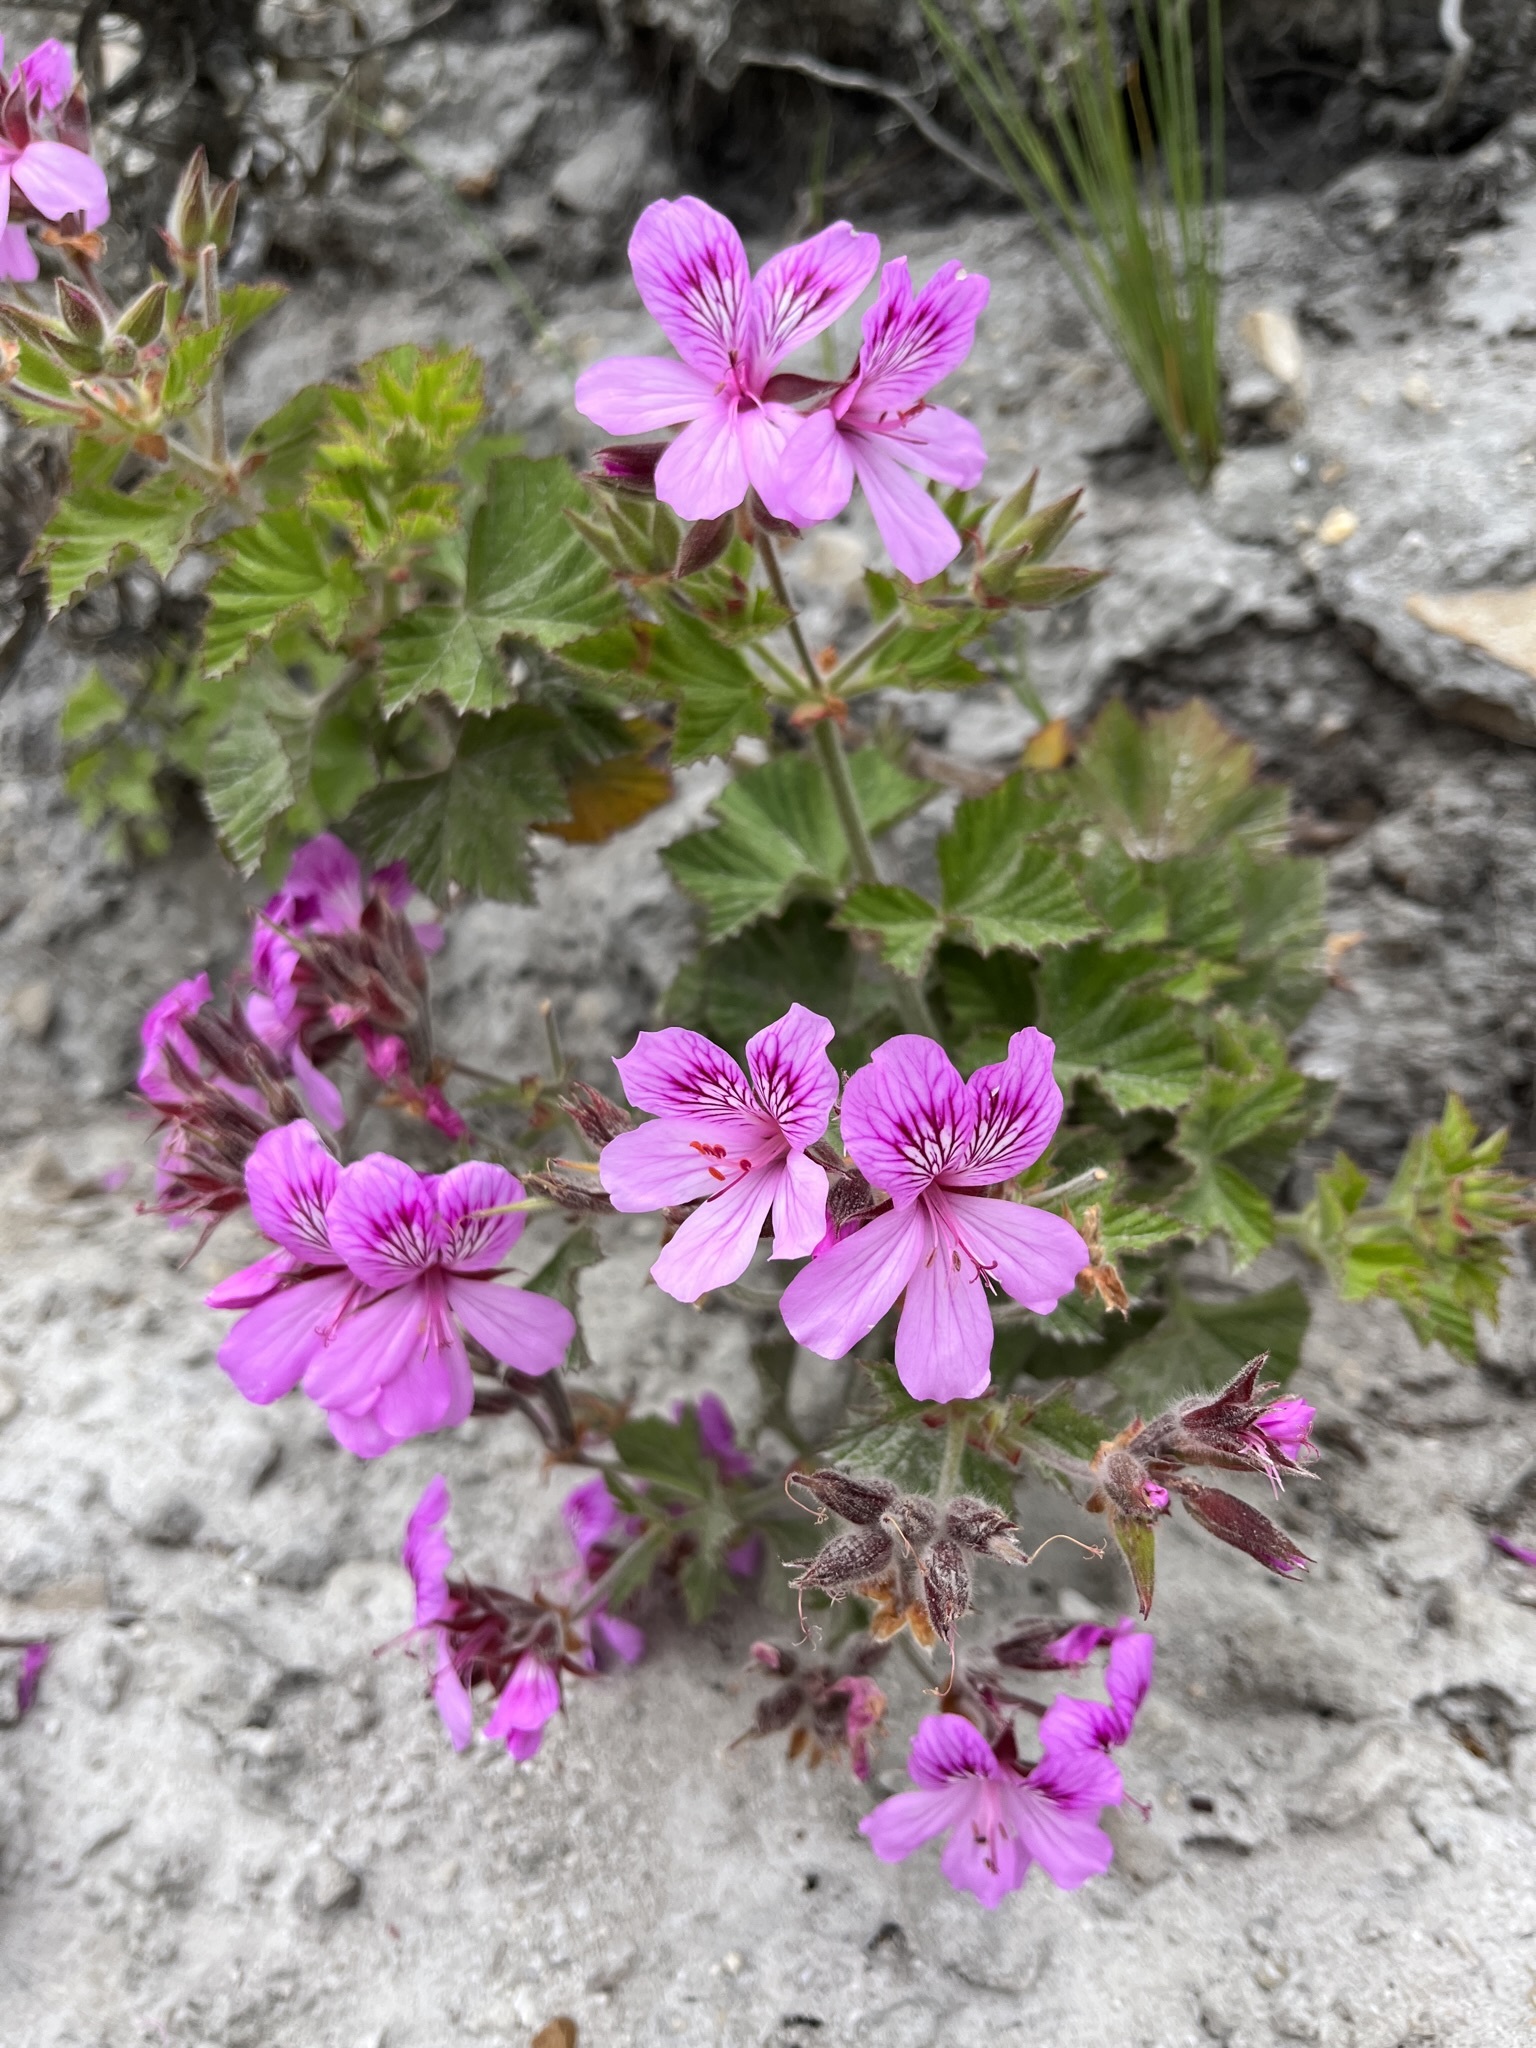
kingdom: Plantae
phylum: Tracheophyta
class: Magnoliopsida
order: Geraniales
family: Geraniaceae
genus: Pelargonium
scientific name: Pelargonium cucullatum
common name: Tree pelargonium
